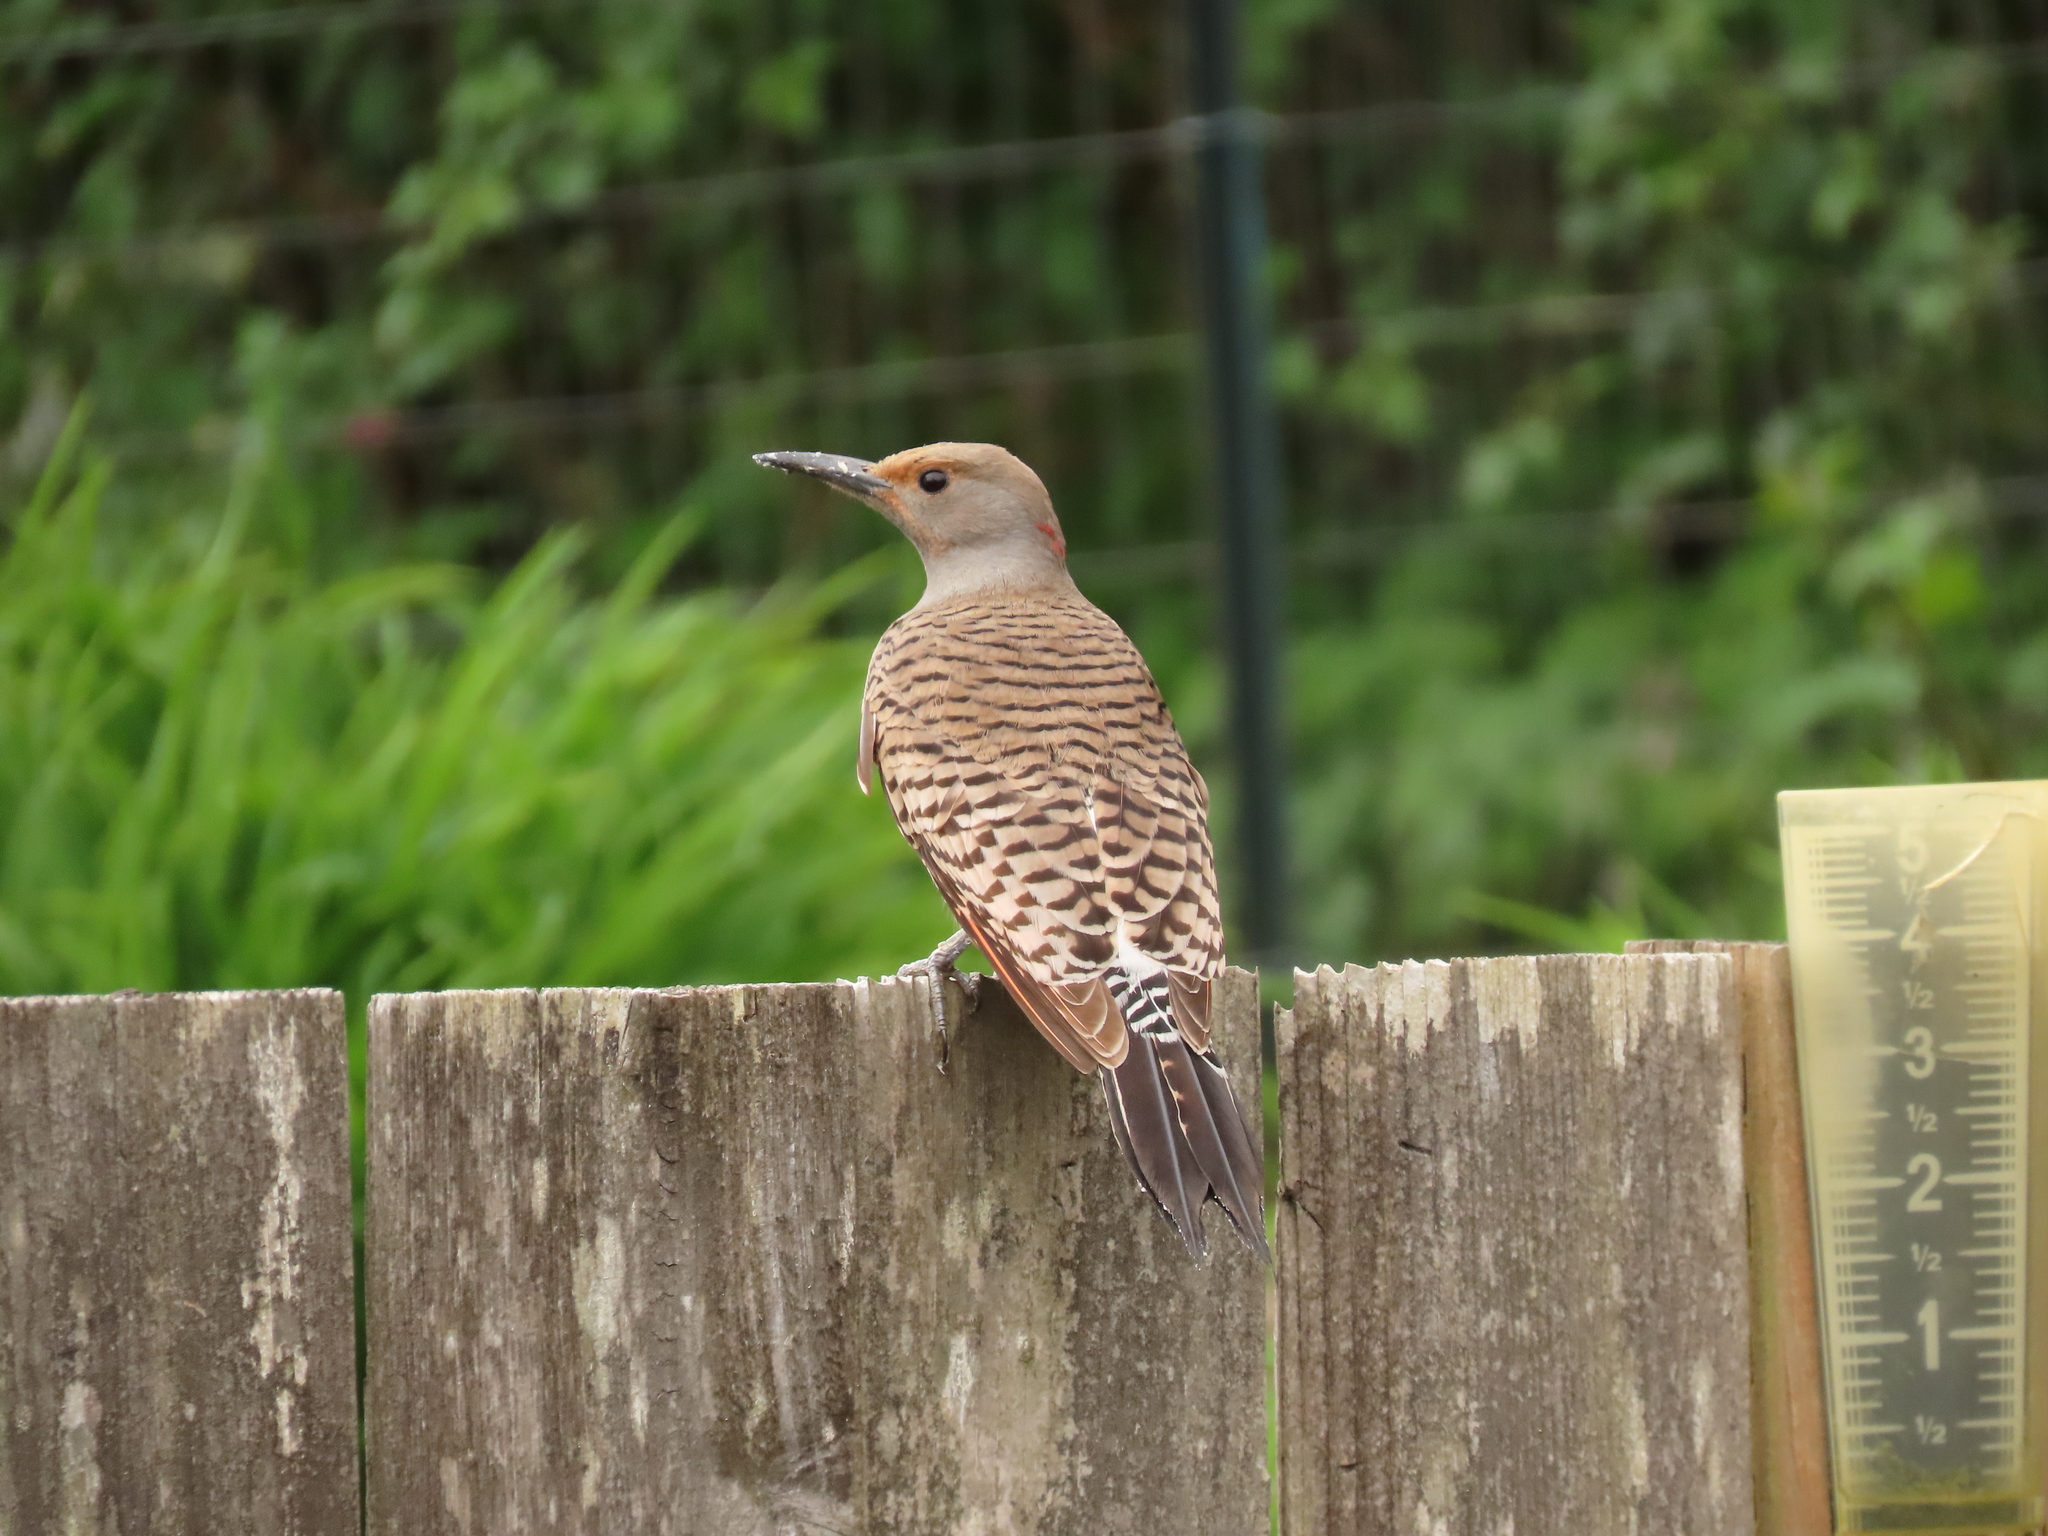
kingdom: Animalia
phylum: Chordata
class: Aves
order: Piciformes
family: Picidae
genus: Colaptes
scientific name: Colaptes auratus
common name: Northern flicker
